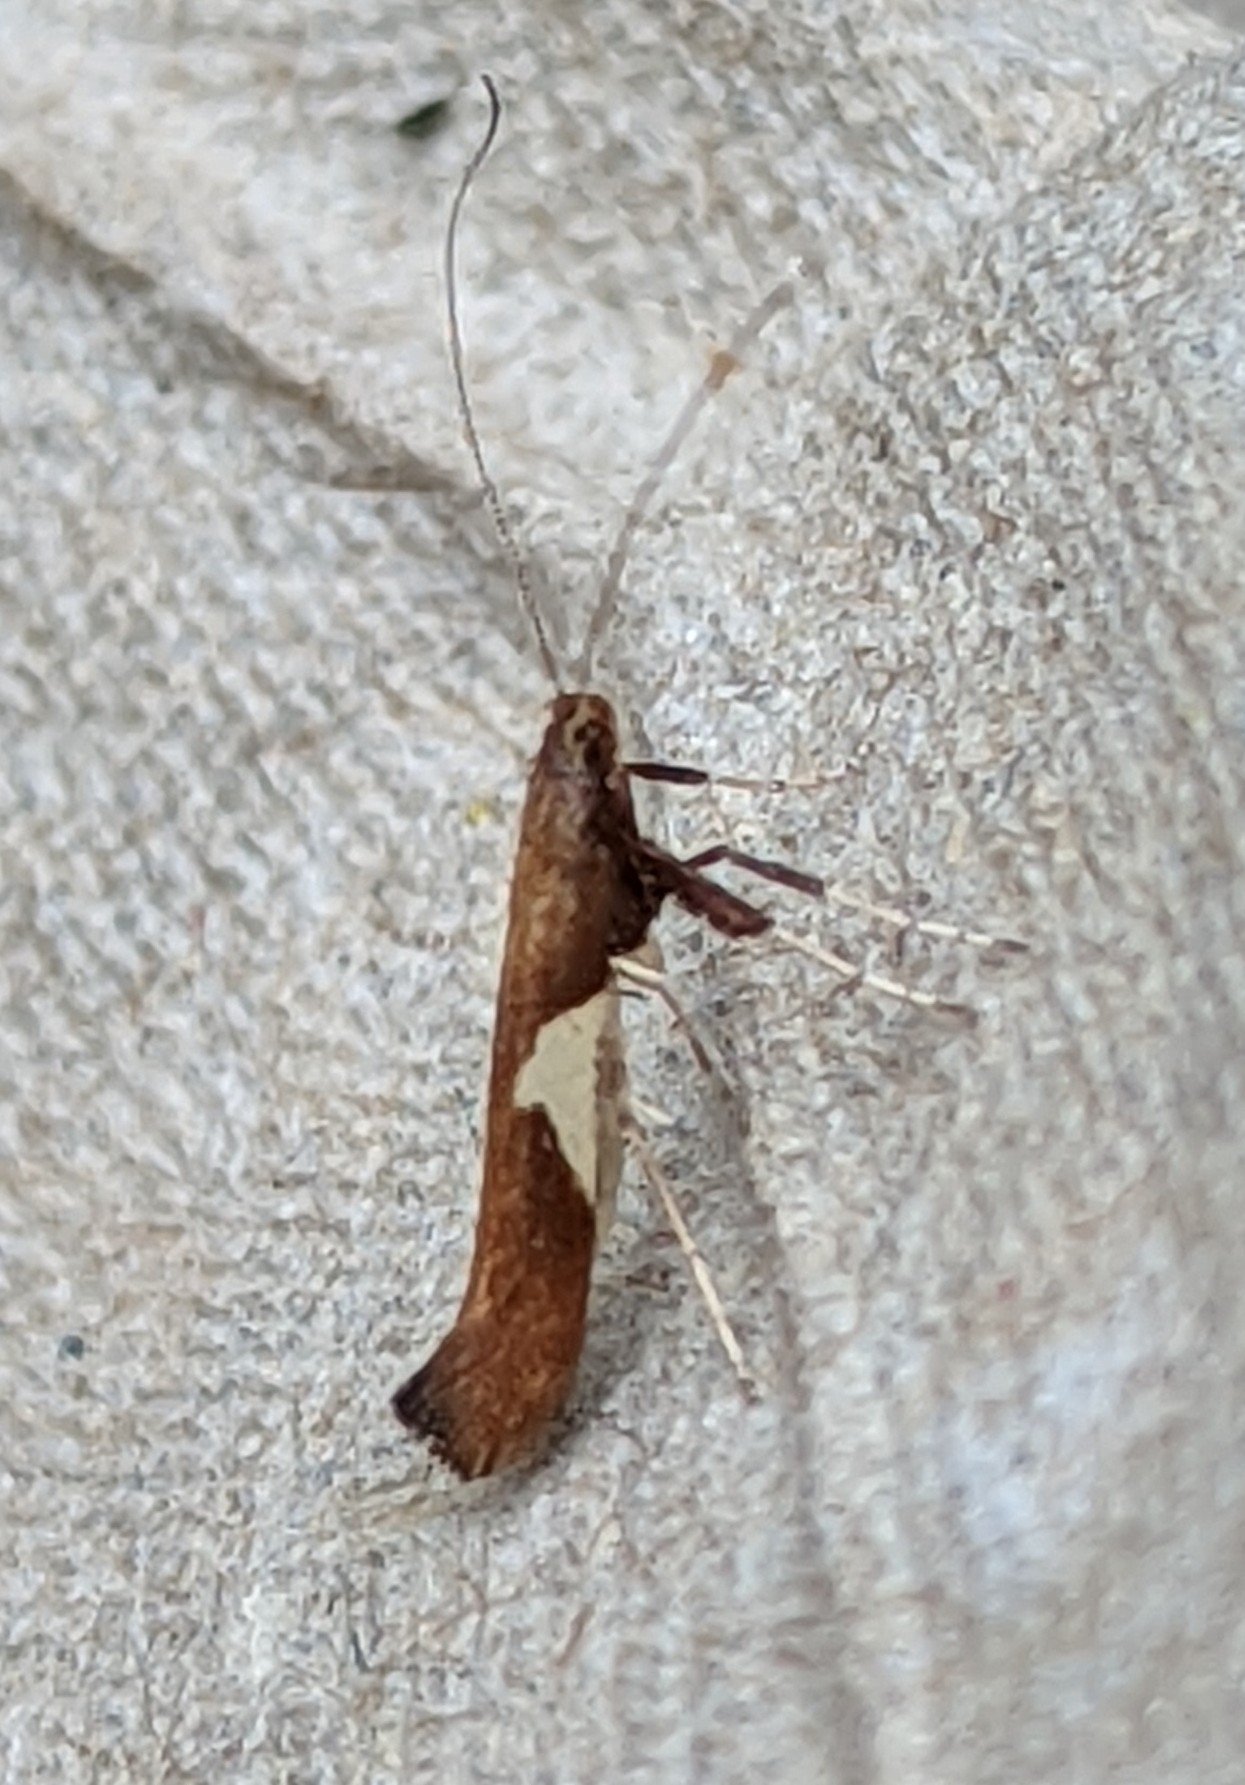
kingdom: Animalia
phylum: Arthropoda
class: Insecta
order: Lepidoptera
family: Gracillariidae
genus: Caloptilia
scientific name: Caloptilia stigmatella
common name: White-triangle slender
